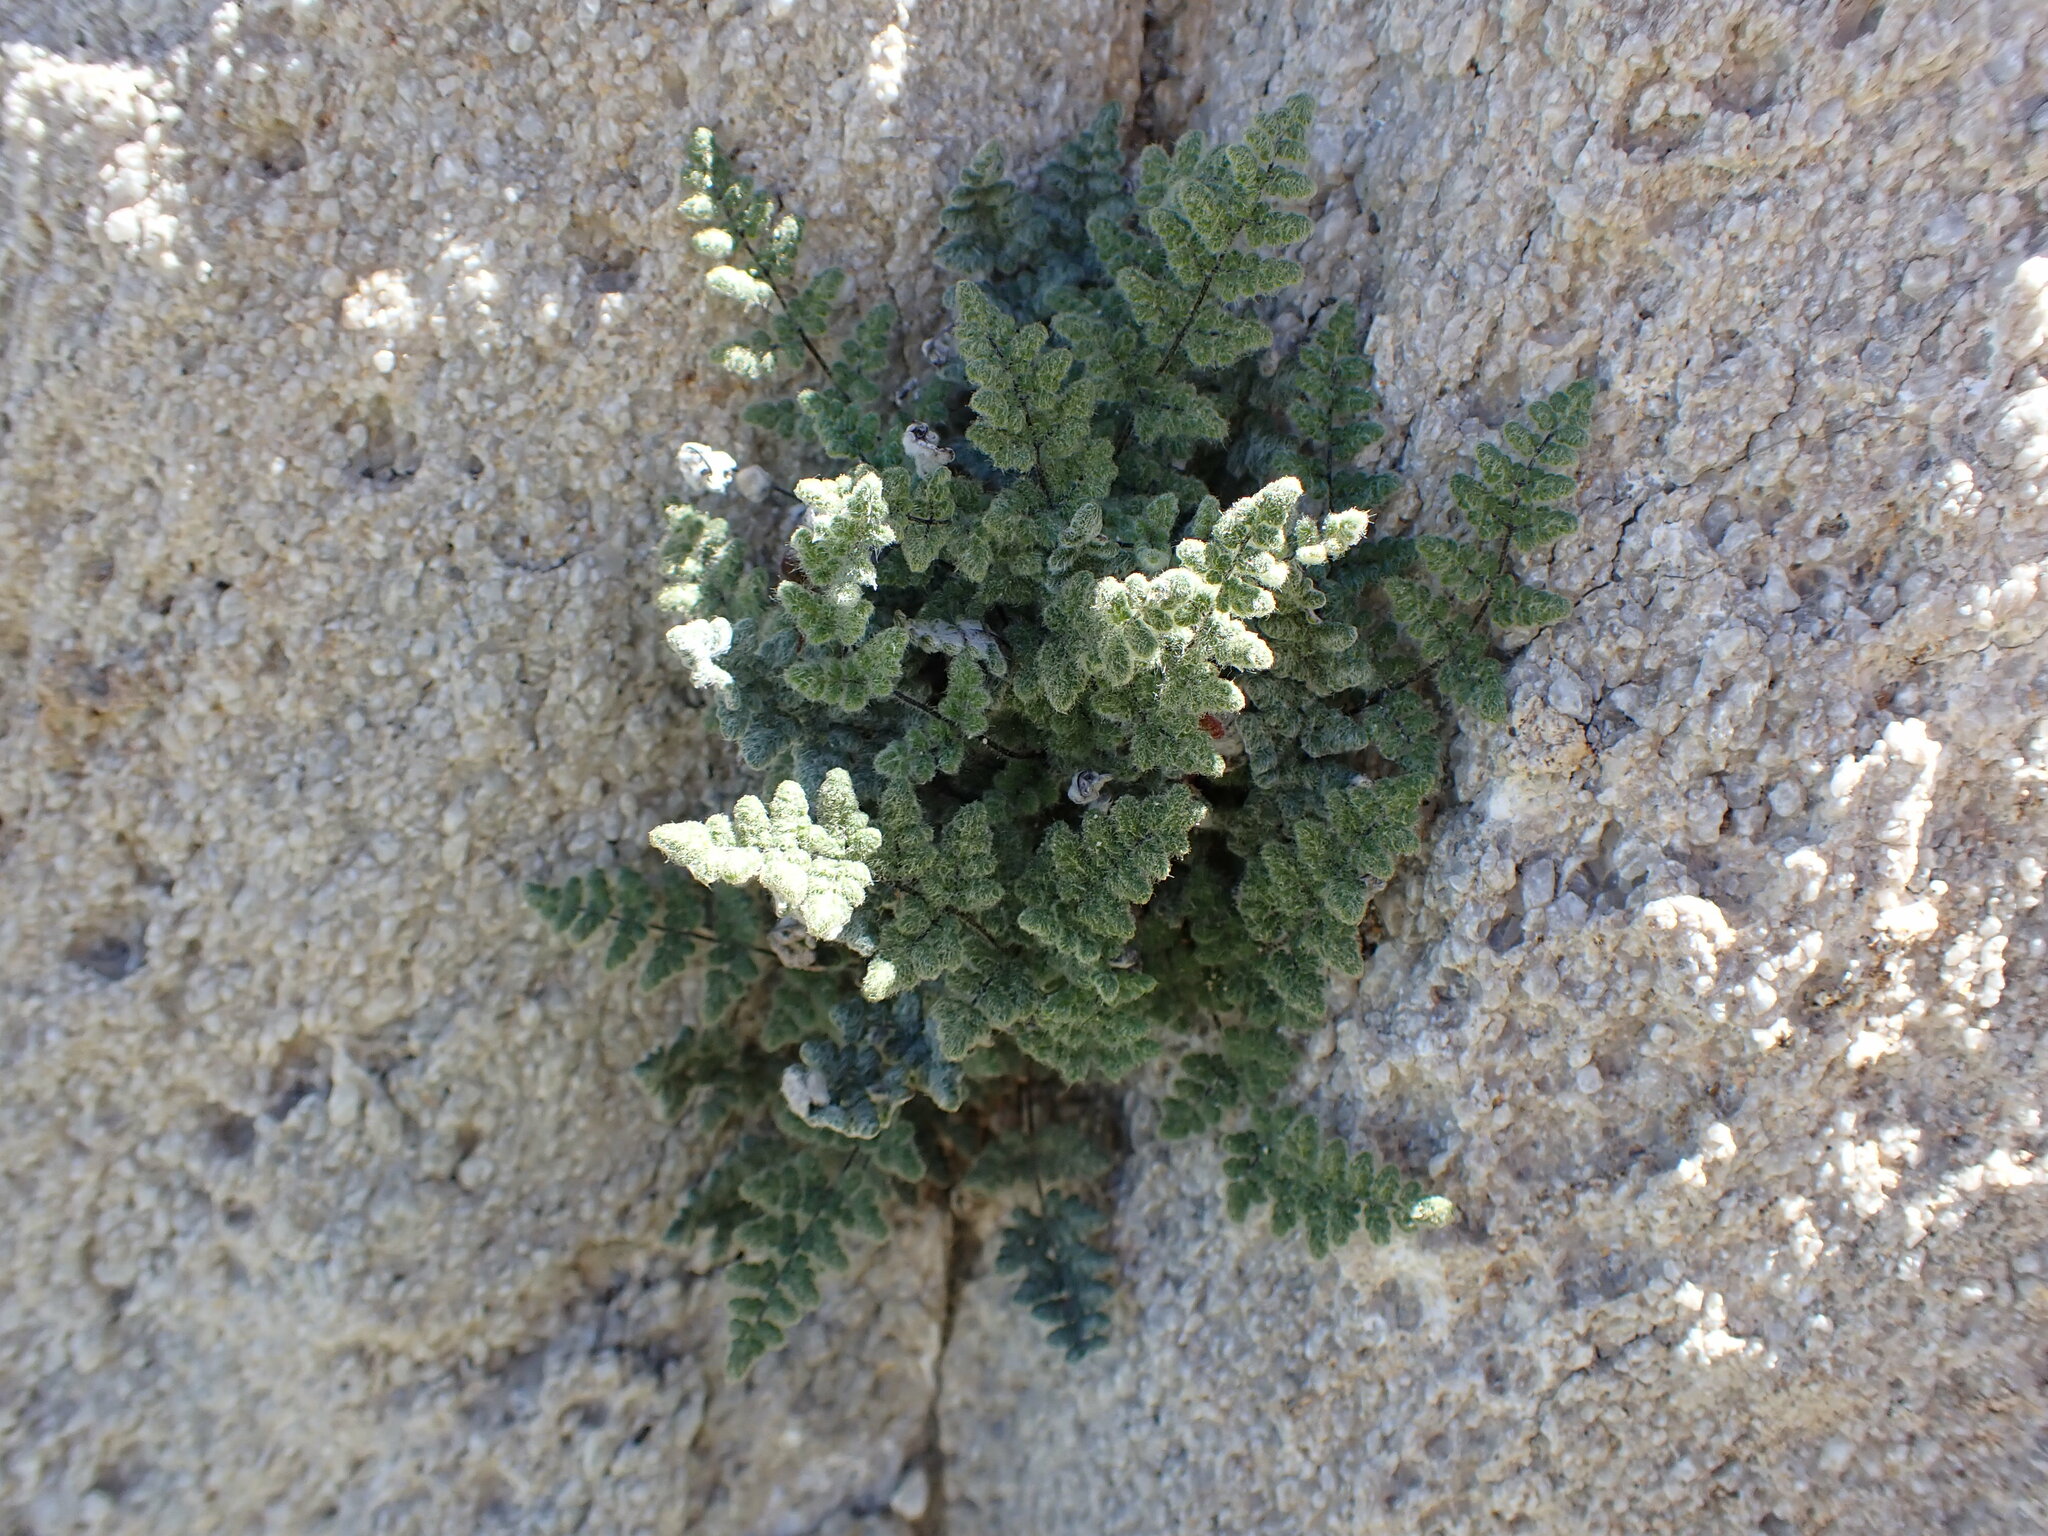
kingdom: Plantae
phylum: Tracheophyta
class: Polypodiopsida
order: Polypodiales
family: Pteridaceae
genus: Myriopteris
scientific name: Myriopteris parryi
